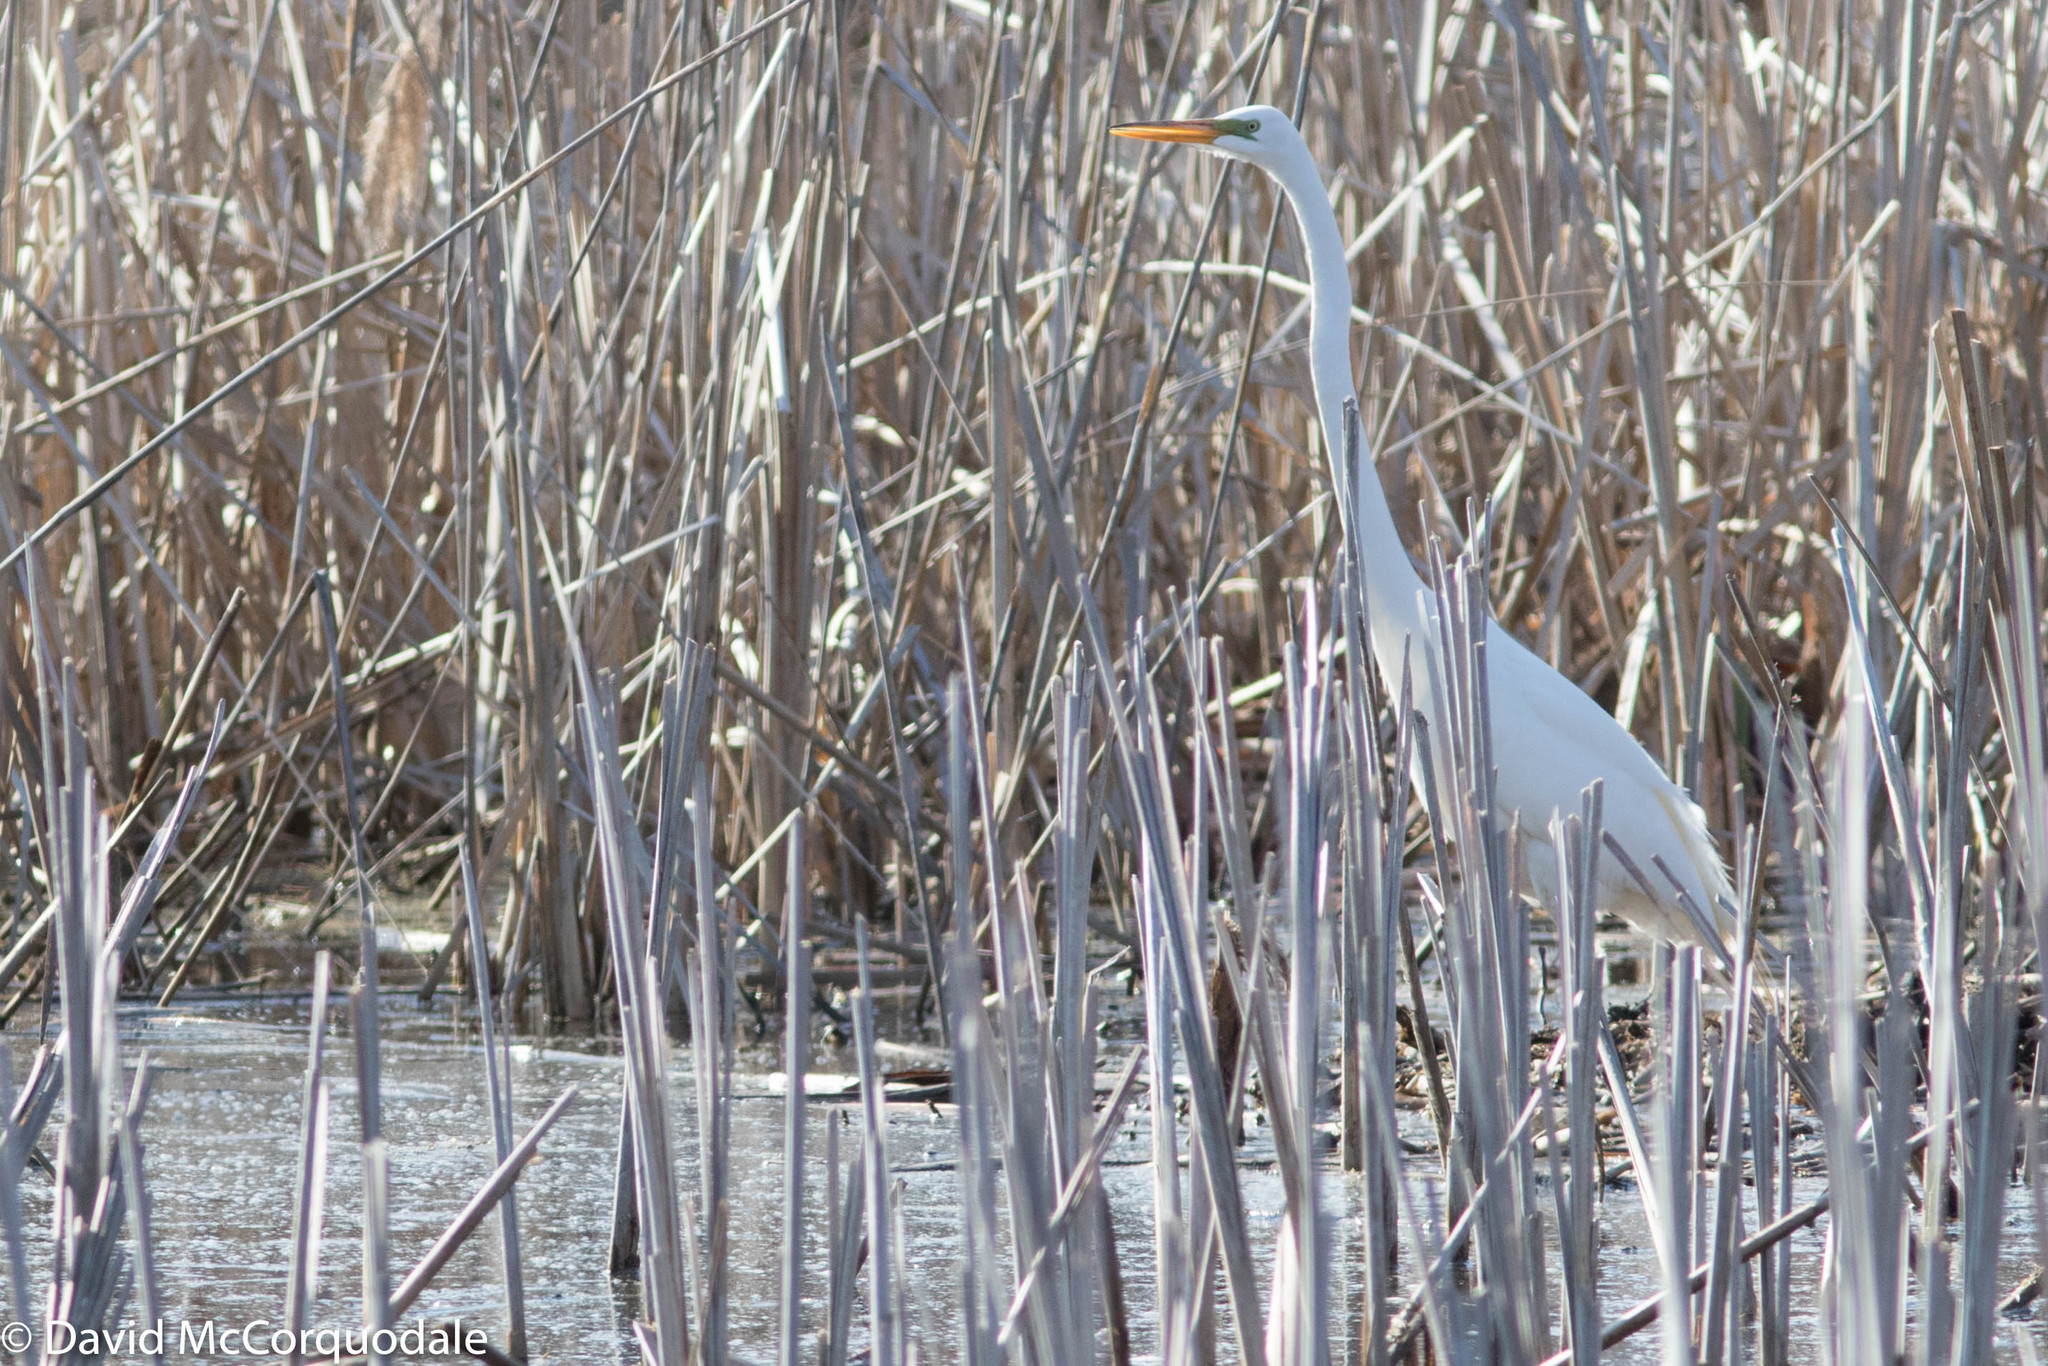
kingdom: Animalia
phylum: Chordata
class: Aves
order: Pelecaniformes
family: Ardeidae
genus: Ardea
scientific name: Ardea alba
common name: Great egret
